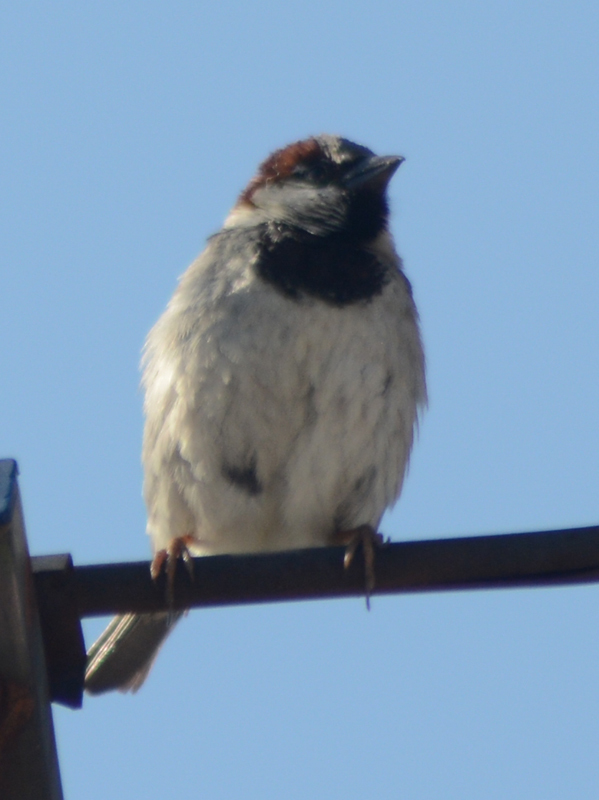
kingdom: Animalia
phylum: Chordata
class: Aves
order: Passeriformes
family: Passeridae
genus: Passer
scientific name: Passer domesticus
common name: House sparrow
